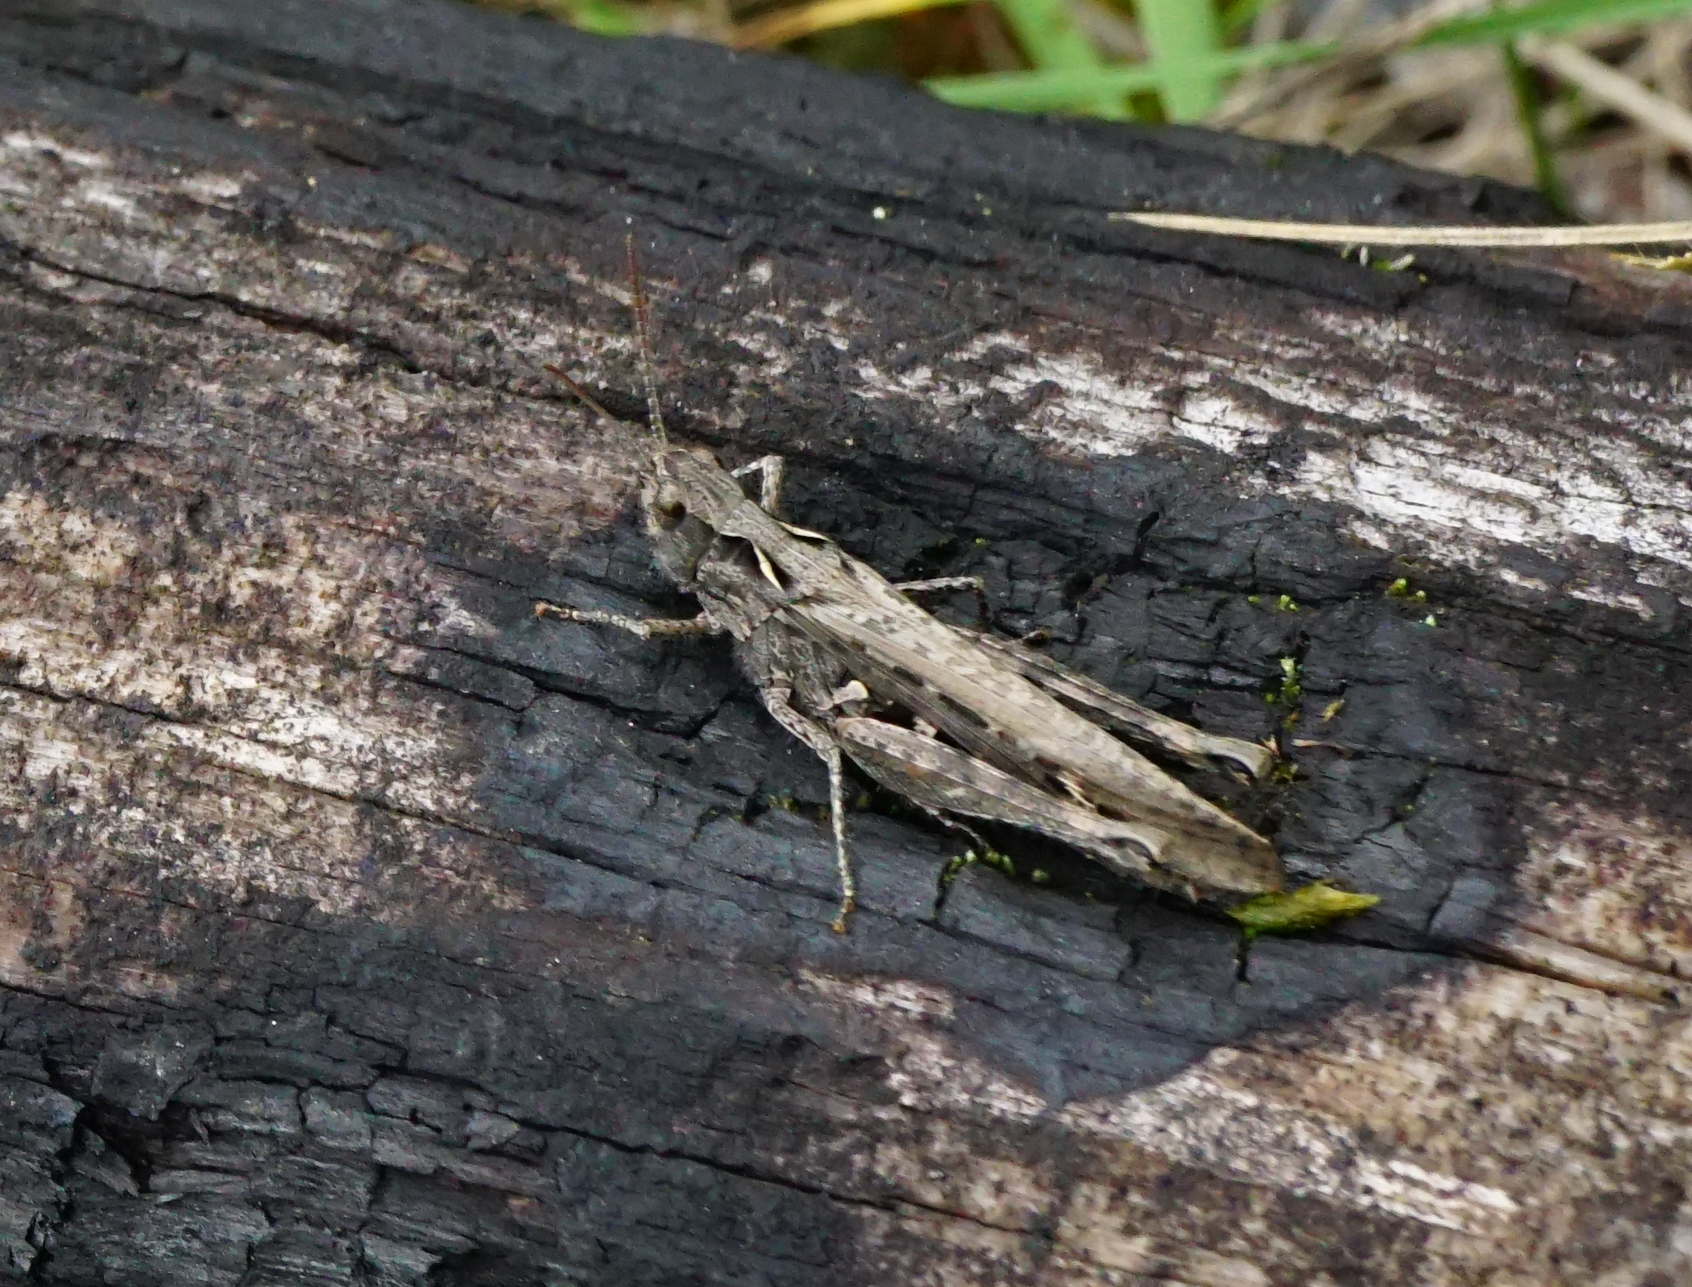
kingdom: Animalia
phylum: Arthropoda
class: Insecta
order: Orthoptera
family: Acrididae
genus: Glyptobothrus
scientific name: Glyptobothrus
